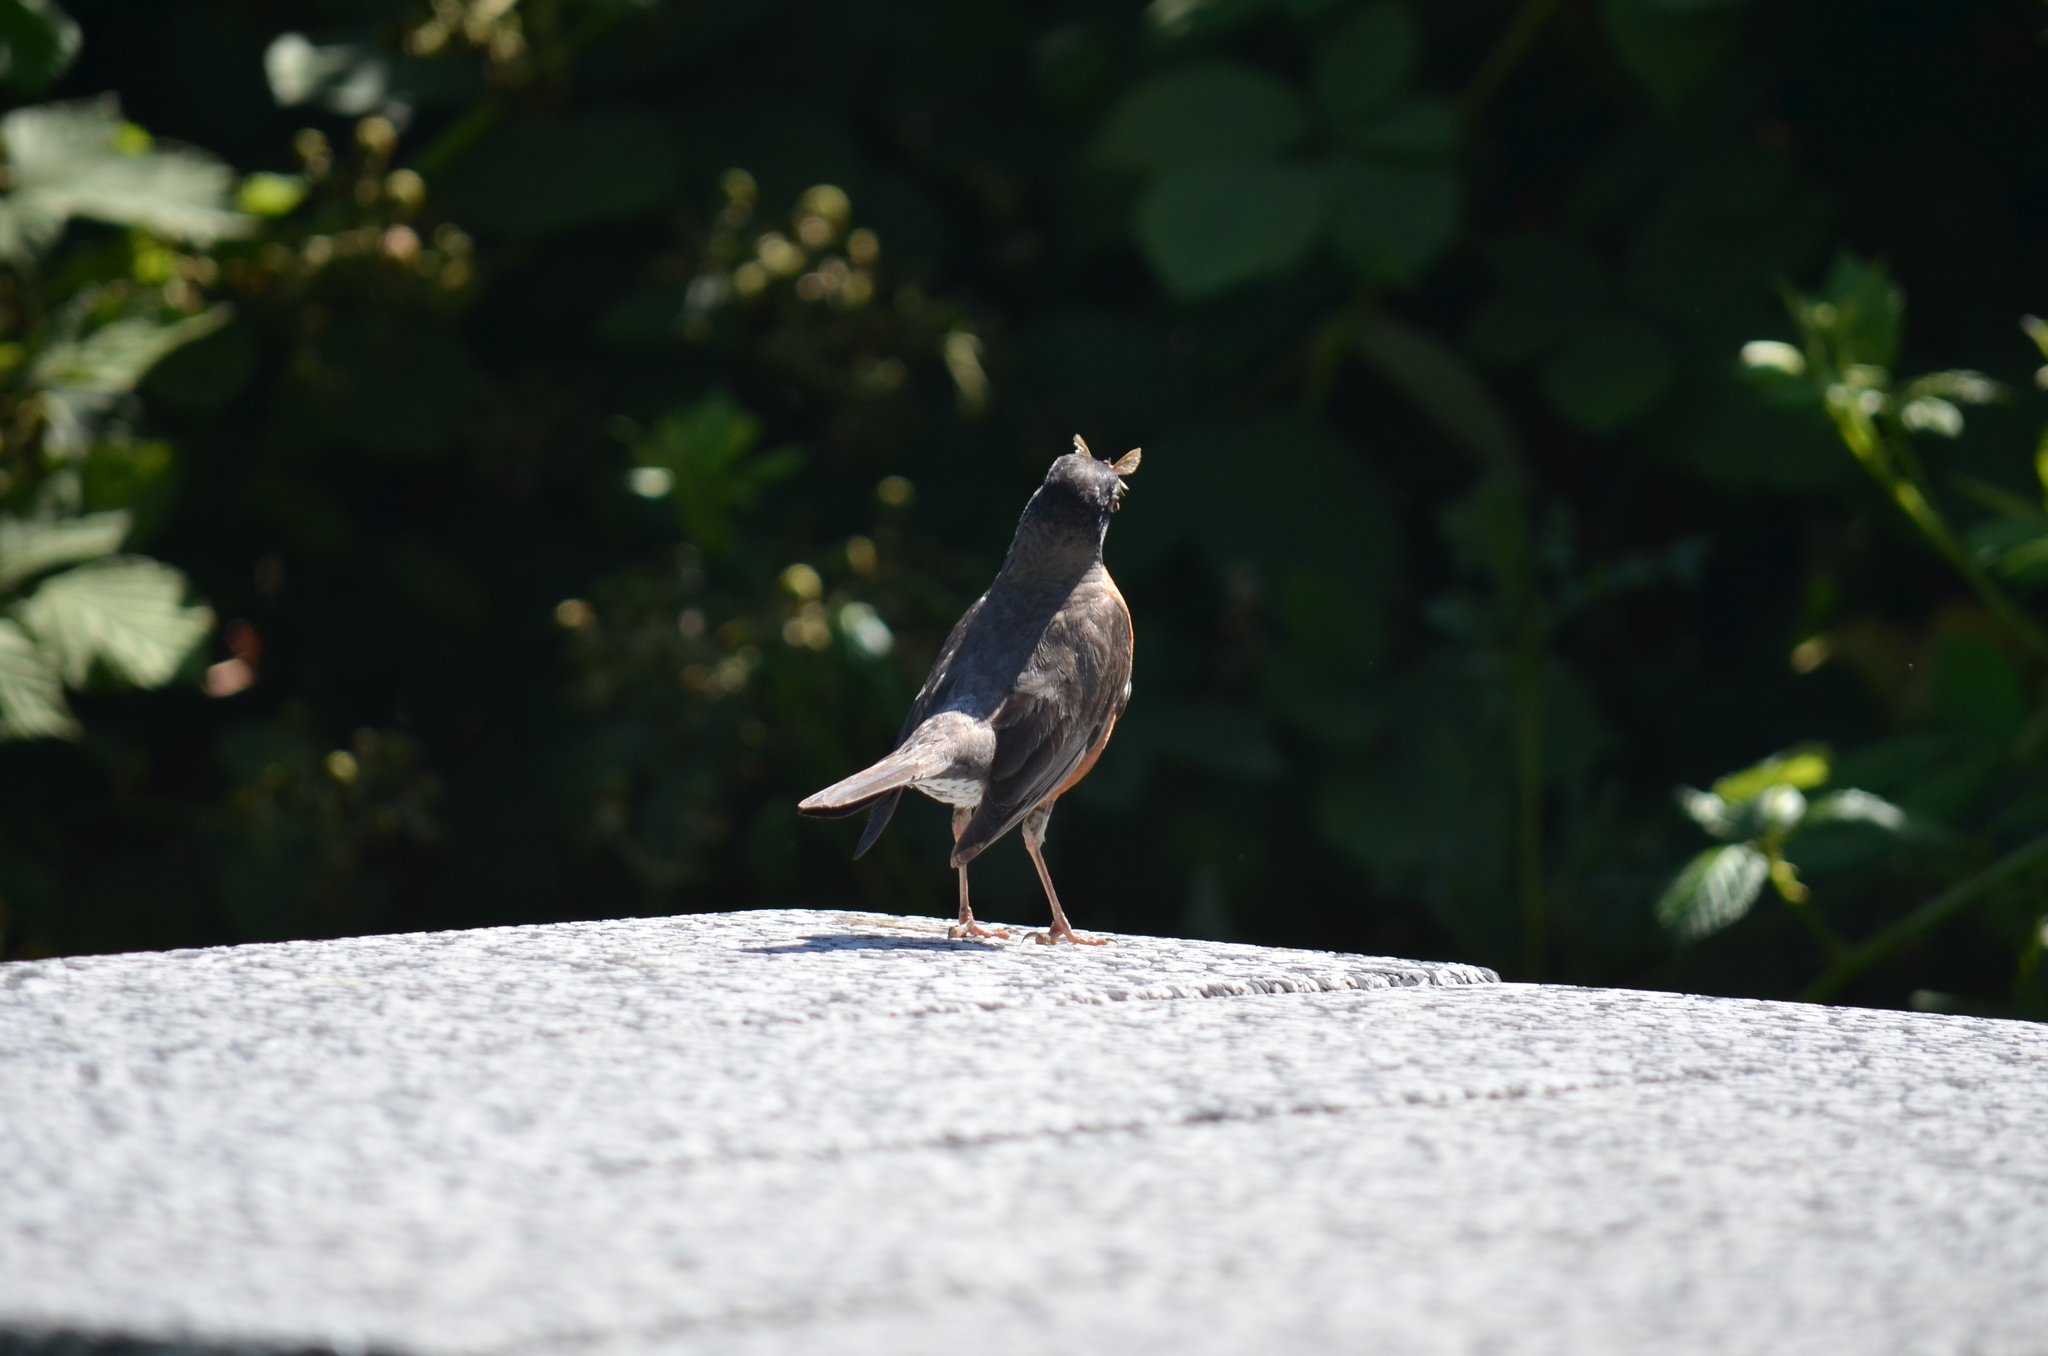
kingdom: Animalia
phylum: Chordata
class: Aves
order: Passeriformes
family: Turdidae
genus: Turdus
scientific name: Turdus migratorius
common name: American robin
